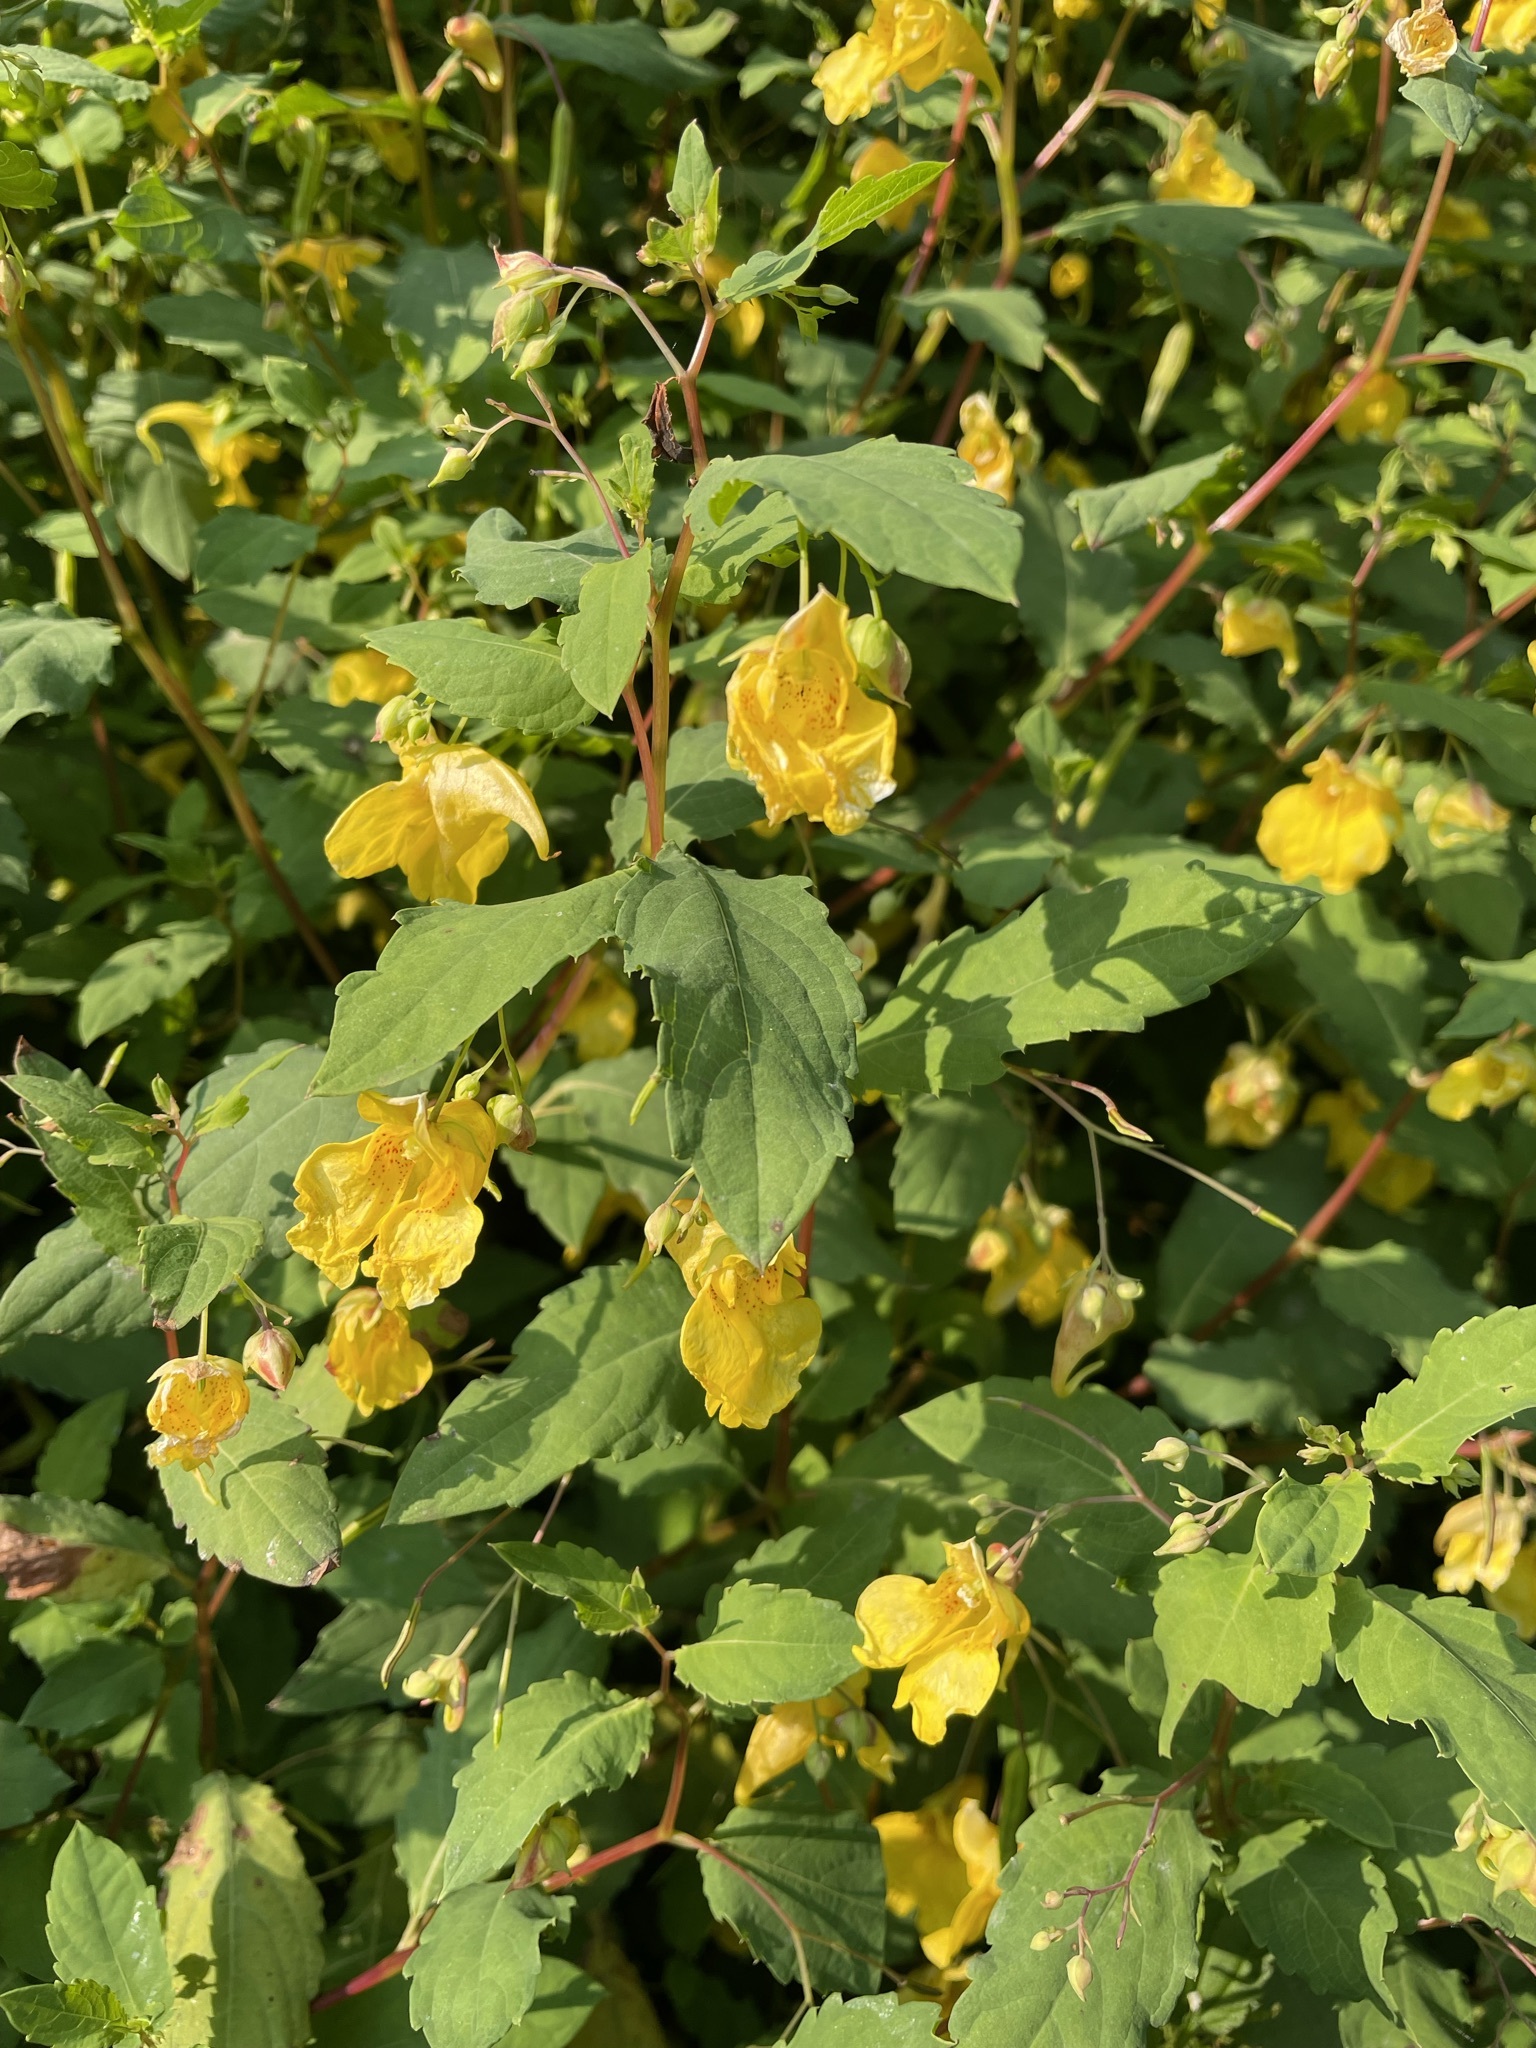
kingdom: Plantae
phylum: Tracheophyta
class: Magnoliopsida
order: Ericales
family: Balsaminaceae
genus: Impatiens
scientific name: Impatiens noli-tangere
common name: Touch-me-not balsam
